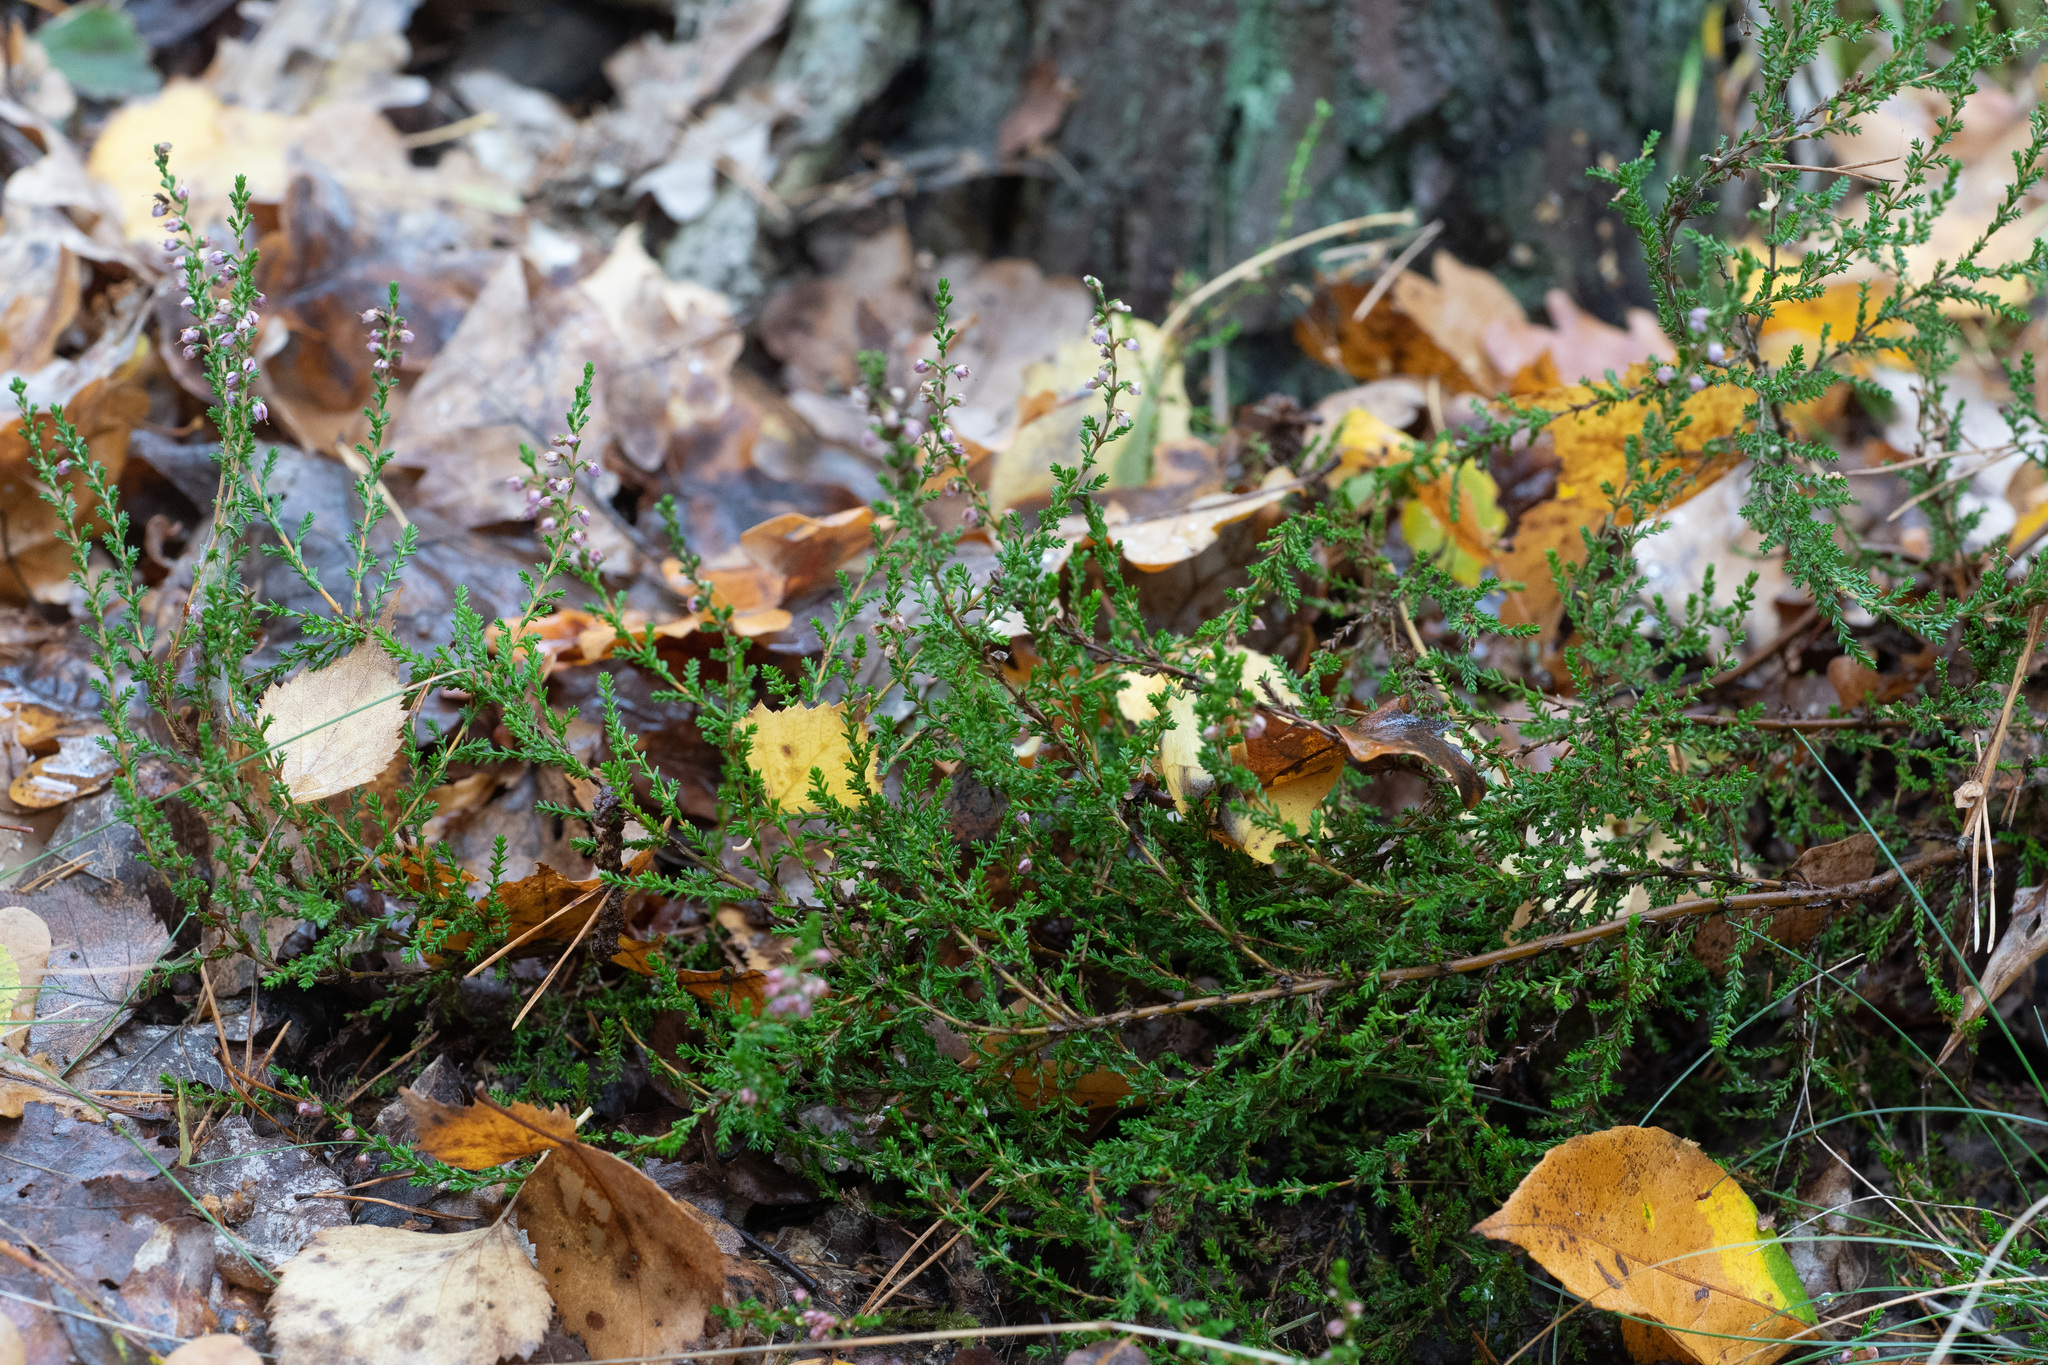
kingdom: Plantae
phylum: Tracheophyta
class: Magnoliopsida
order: Ericales
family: Ericaceae
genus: Calluna
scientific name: Calluna vulgaris
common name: Heather
